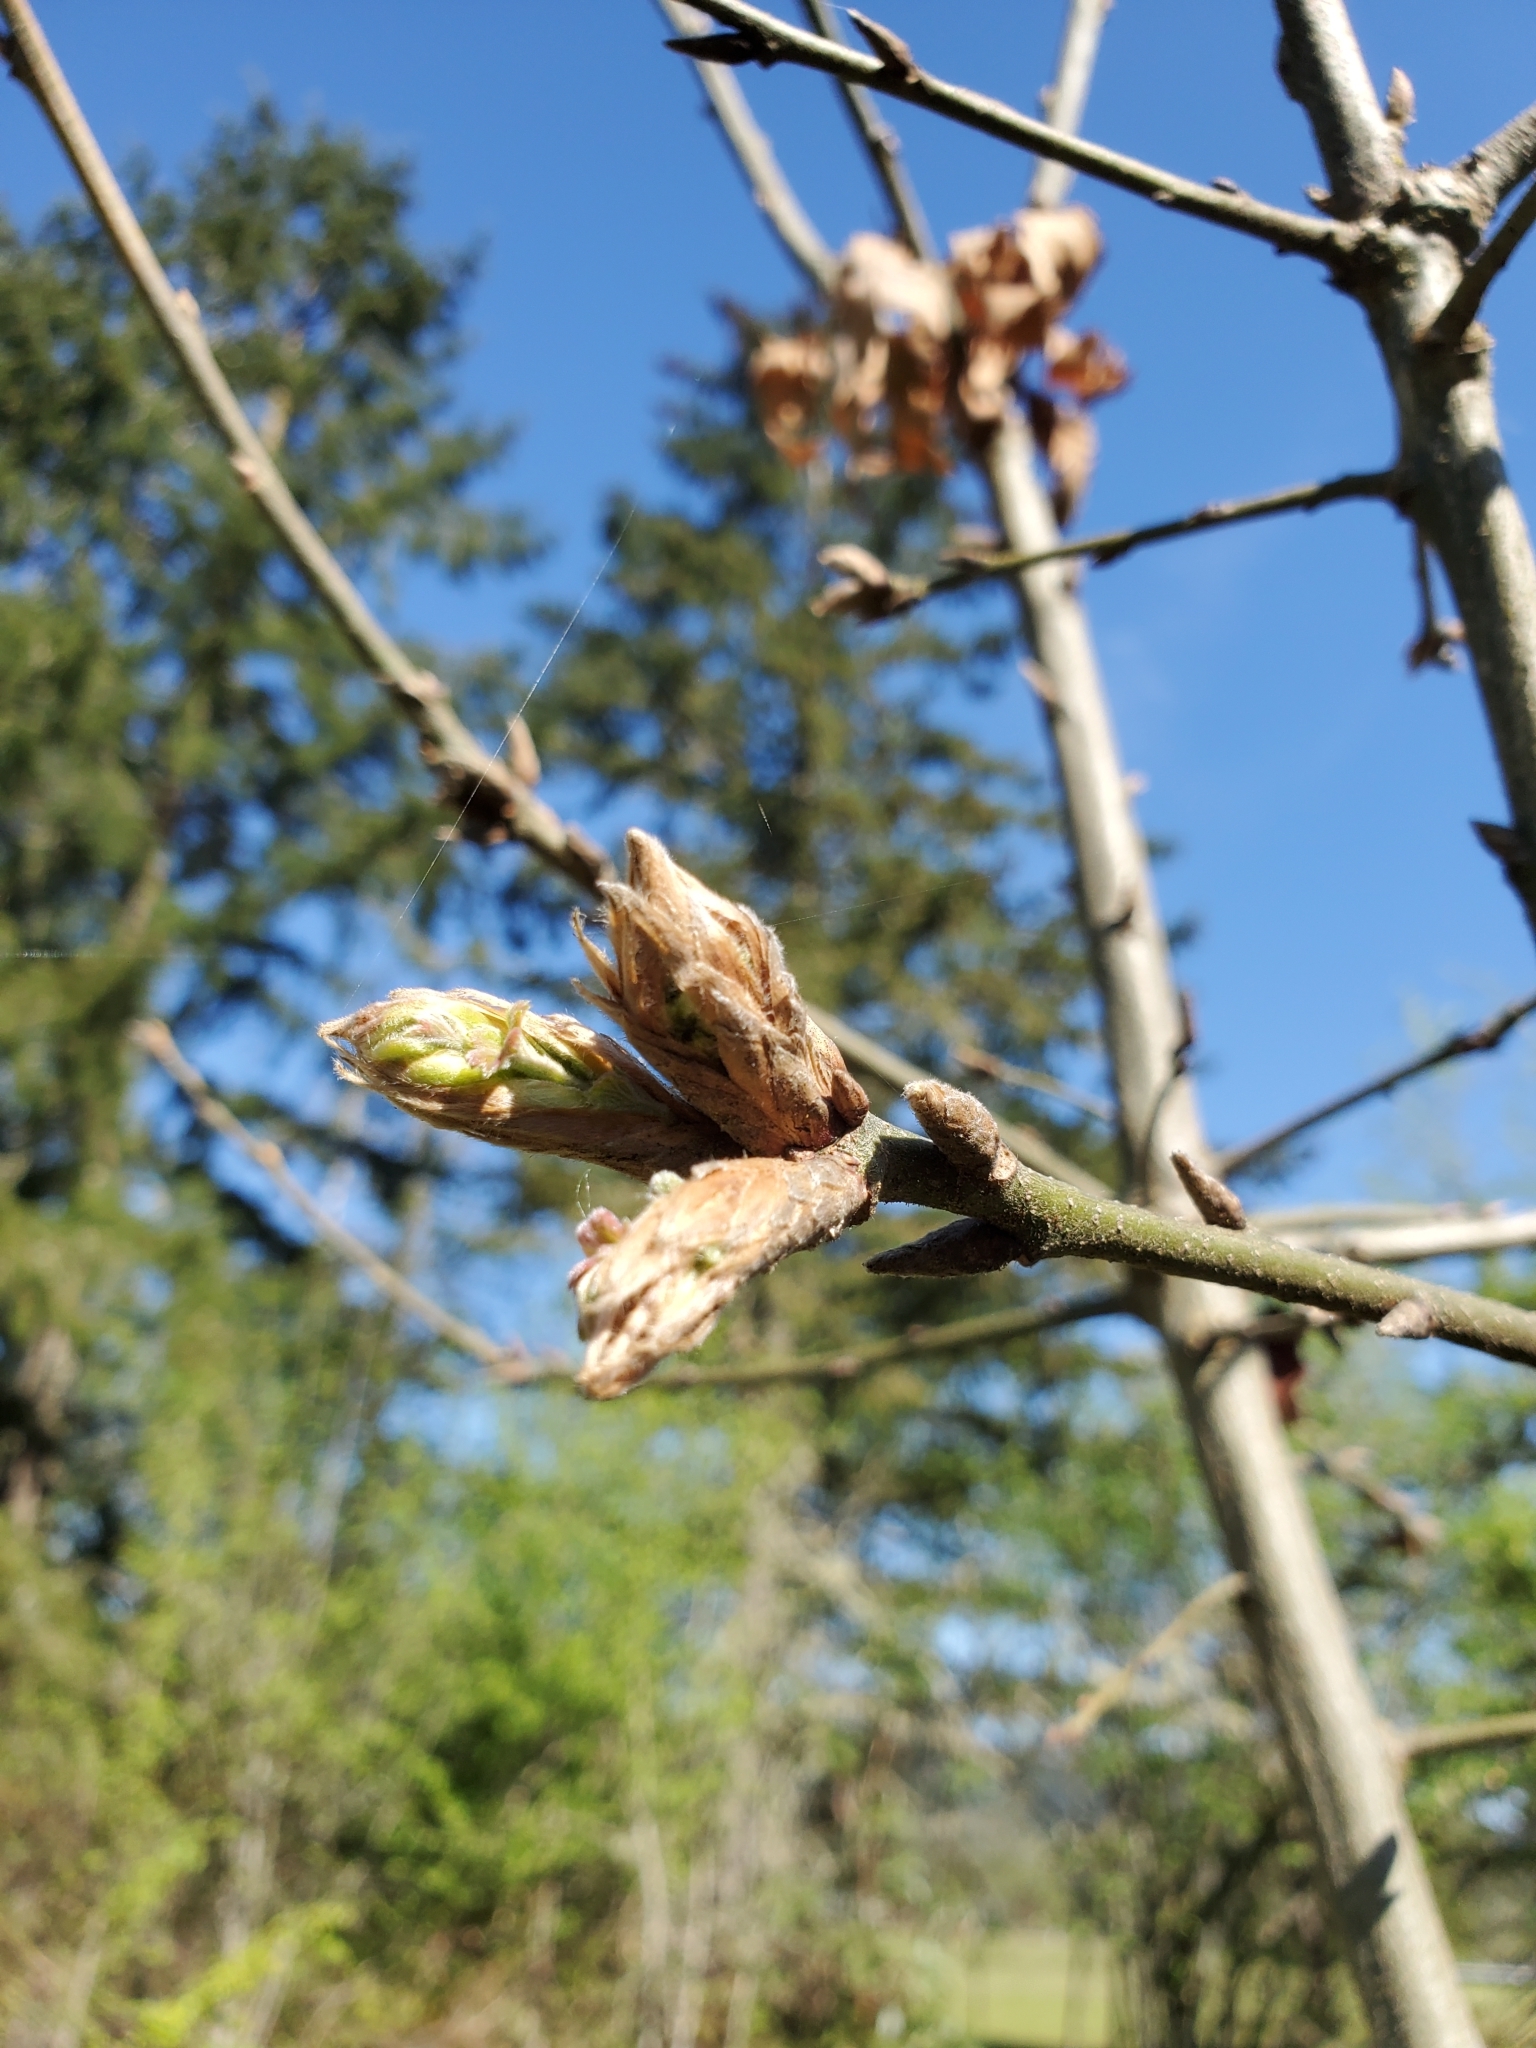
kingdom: Plantae
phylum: Tracheophyta
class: Magnoliopsida
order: Fagales
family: Fagaceae
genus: Quercus
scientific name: Quercus garryana
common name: Garry oak
